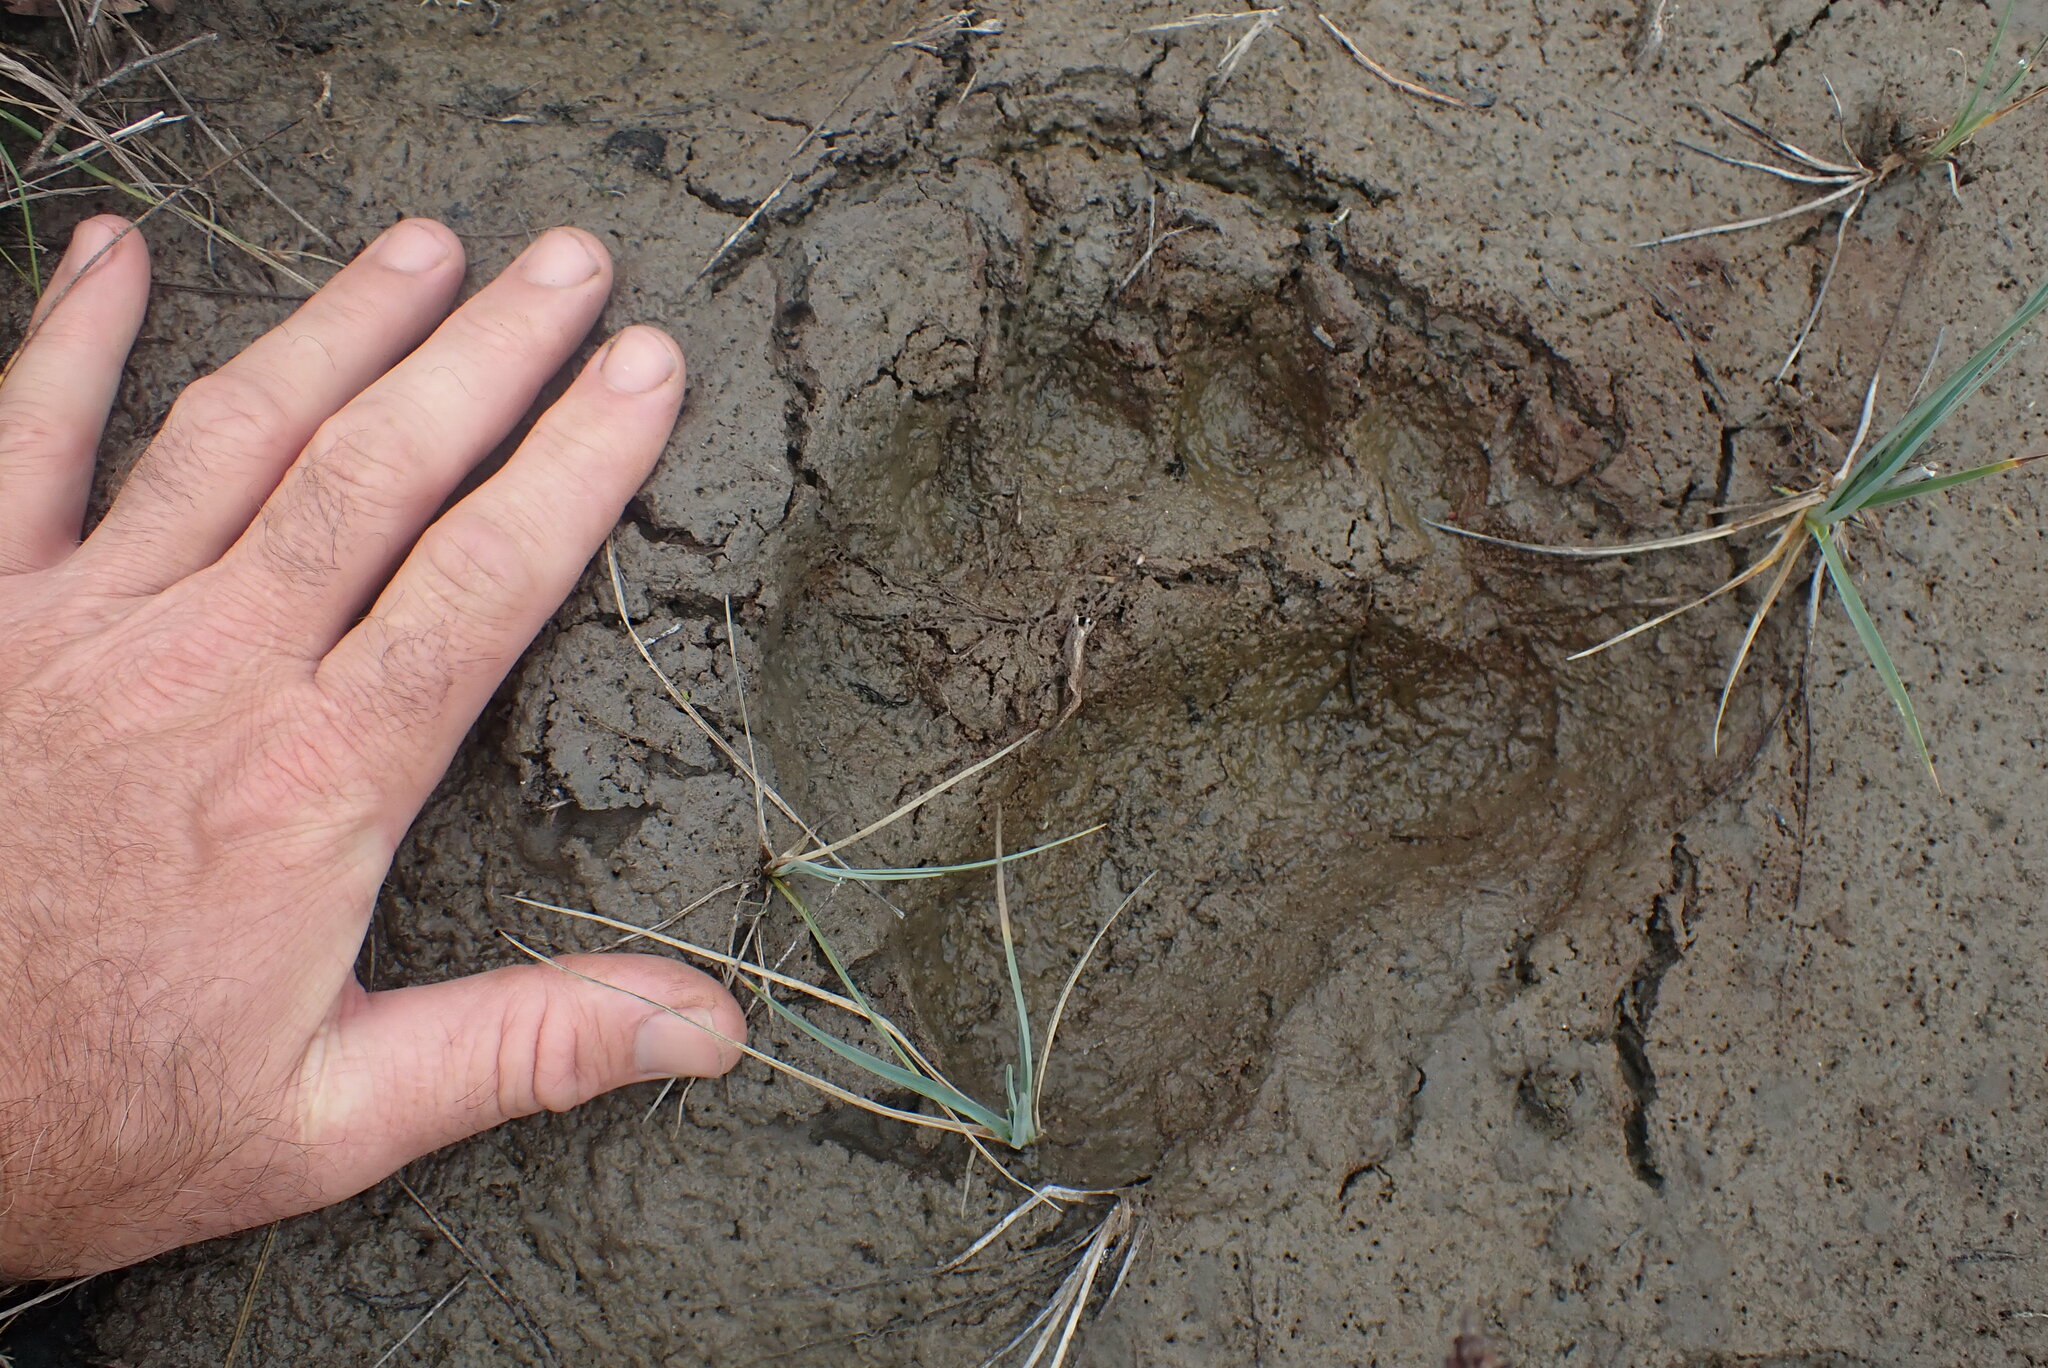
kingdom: Animalia
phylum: Chordata
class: Mammalia
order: Carnivora
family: Ursidae
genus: Ursus
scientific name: Ursus arctos
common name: Brown bear
